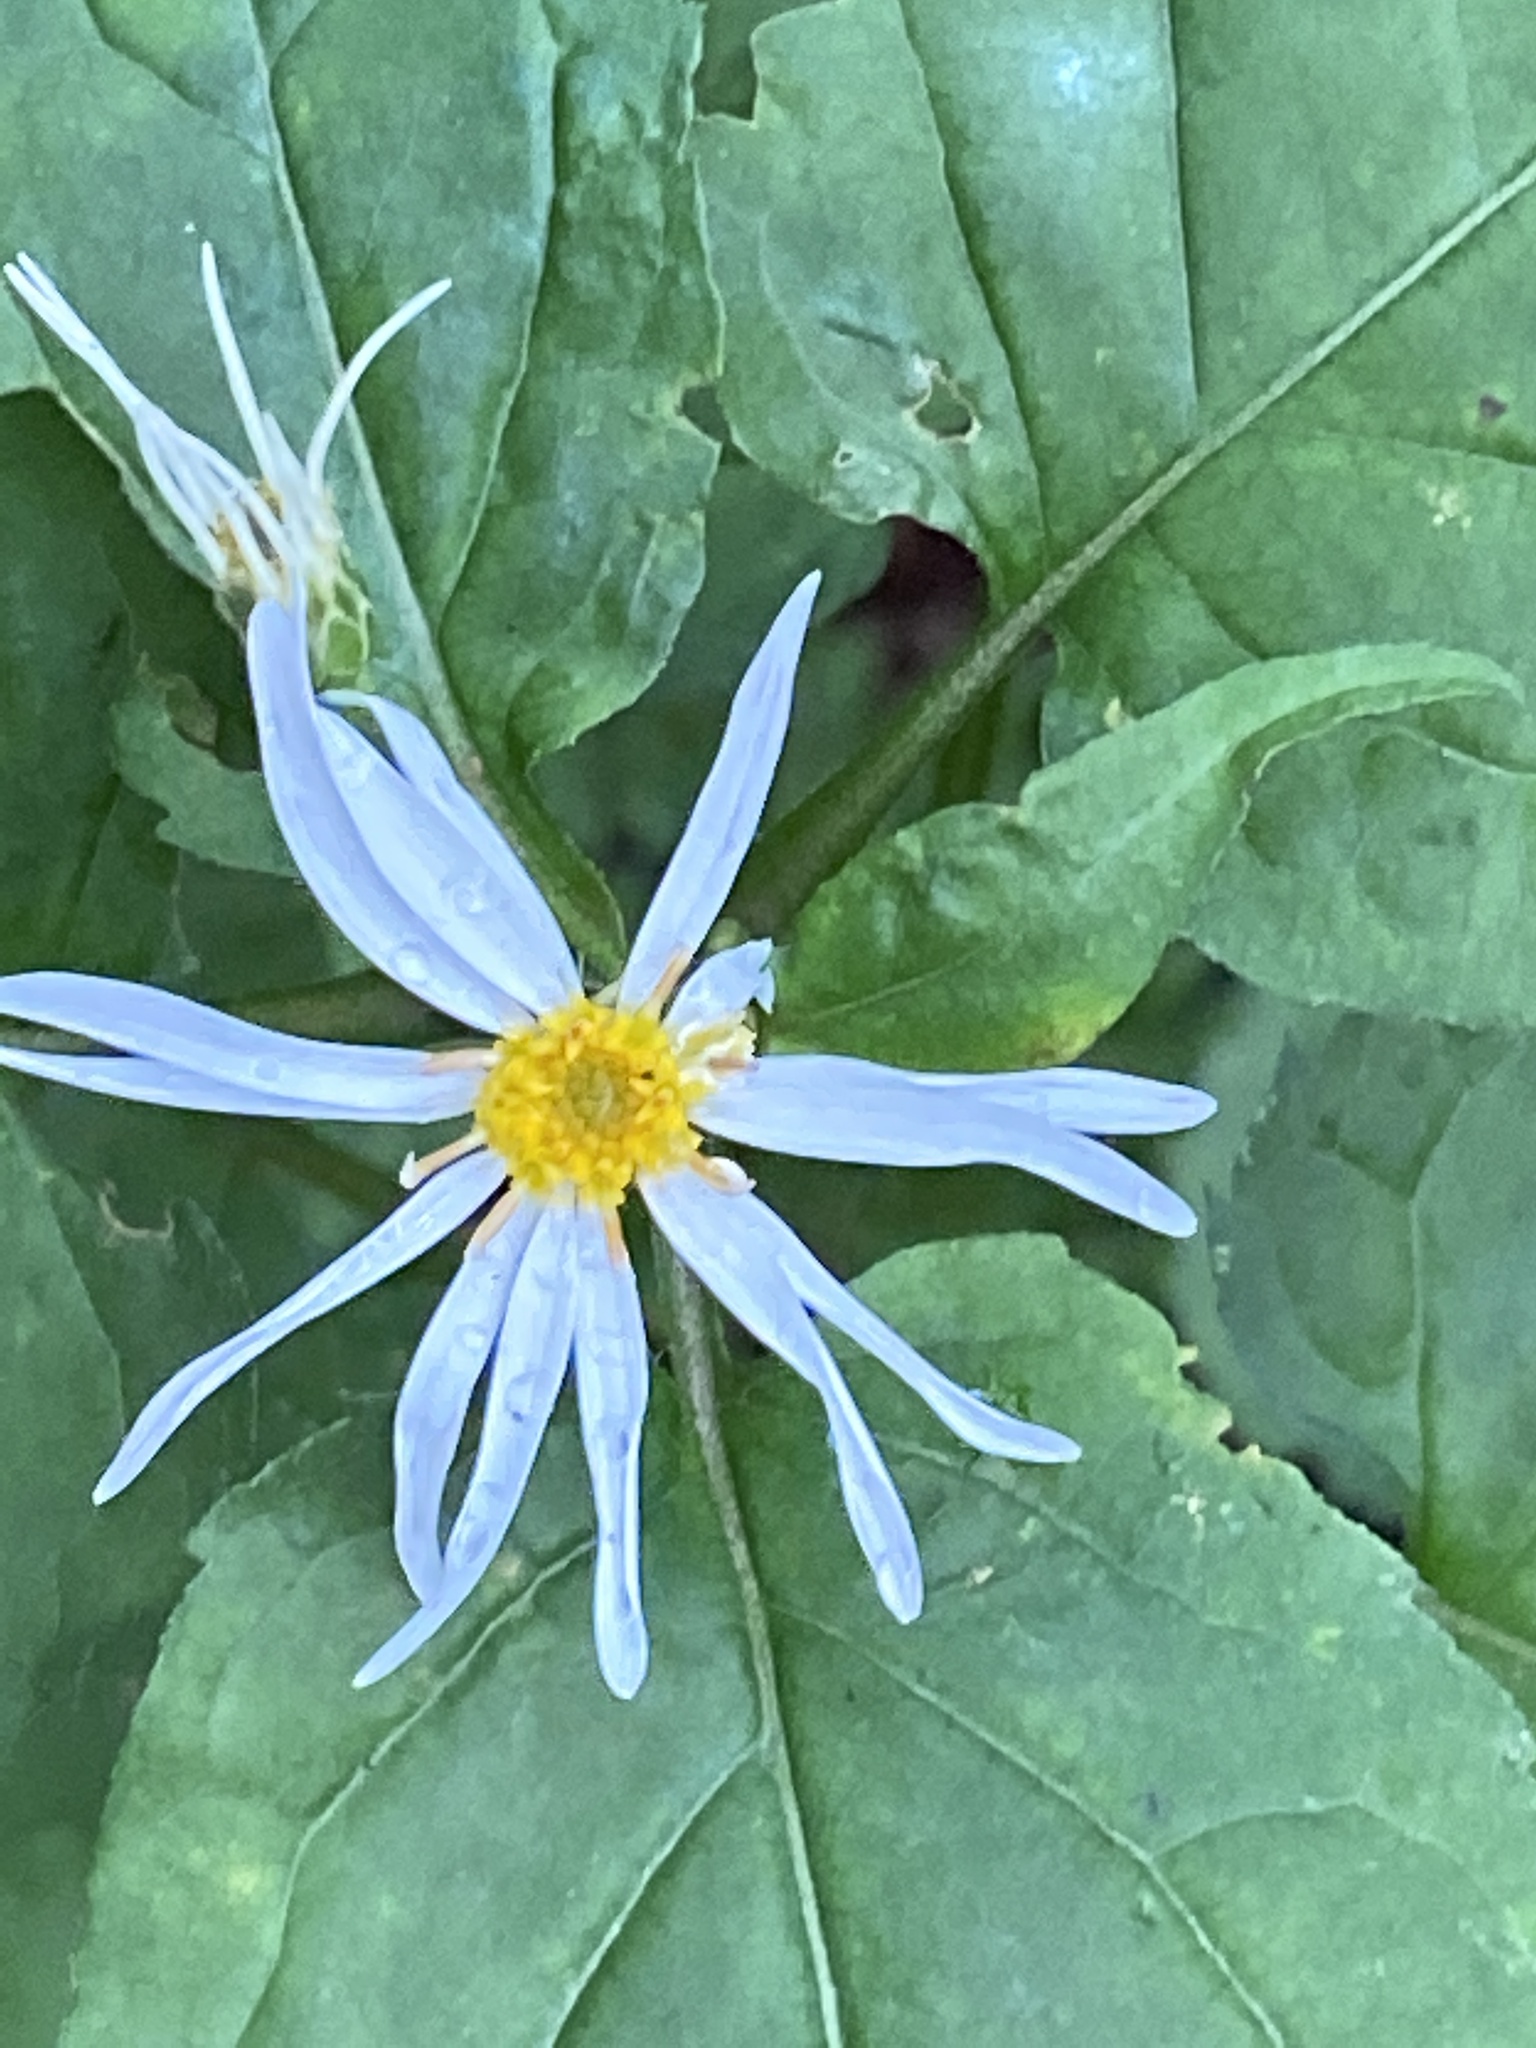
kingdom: Plantae
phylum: Tracheophyta
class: Magnoliopsida
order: Asterales
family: Asteraceae
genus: Eurybia
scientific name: Eurybia chlorolepis
